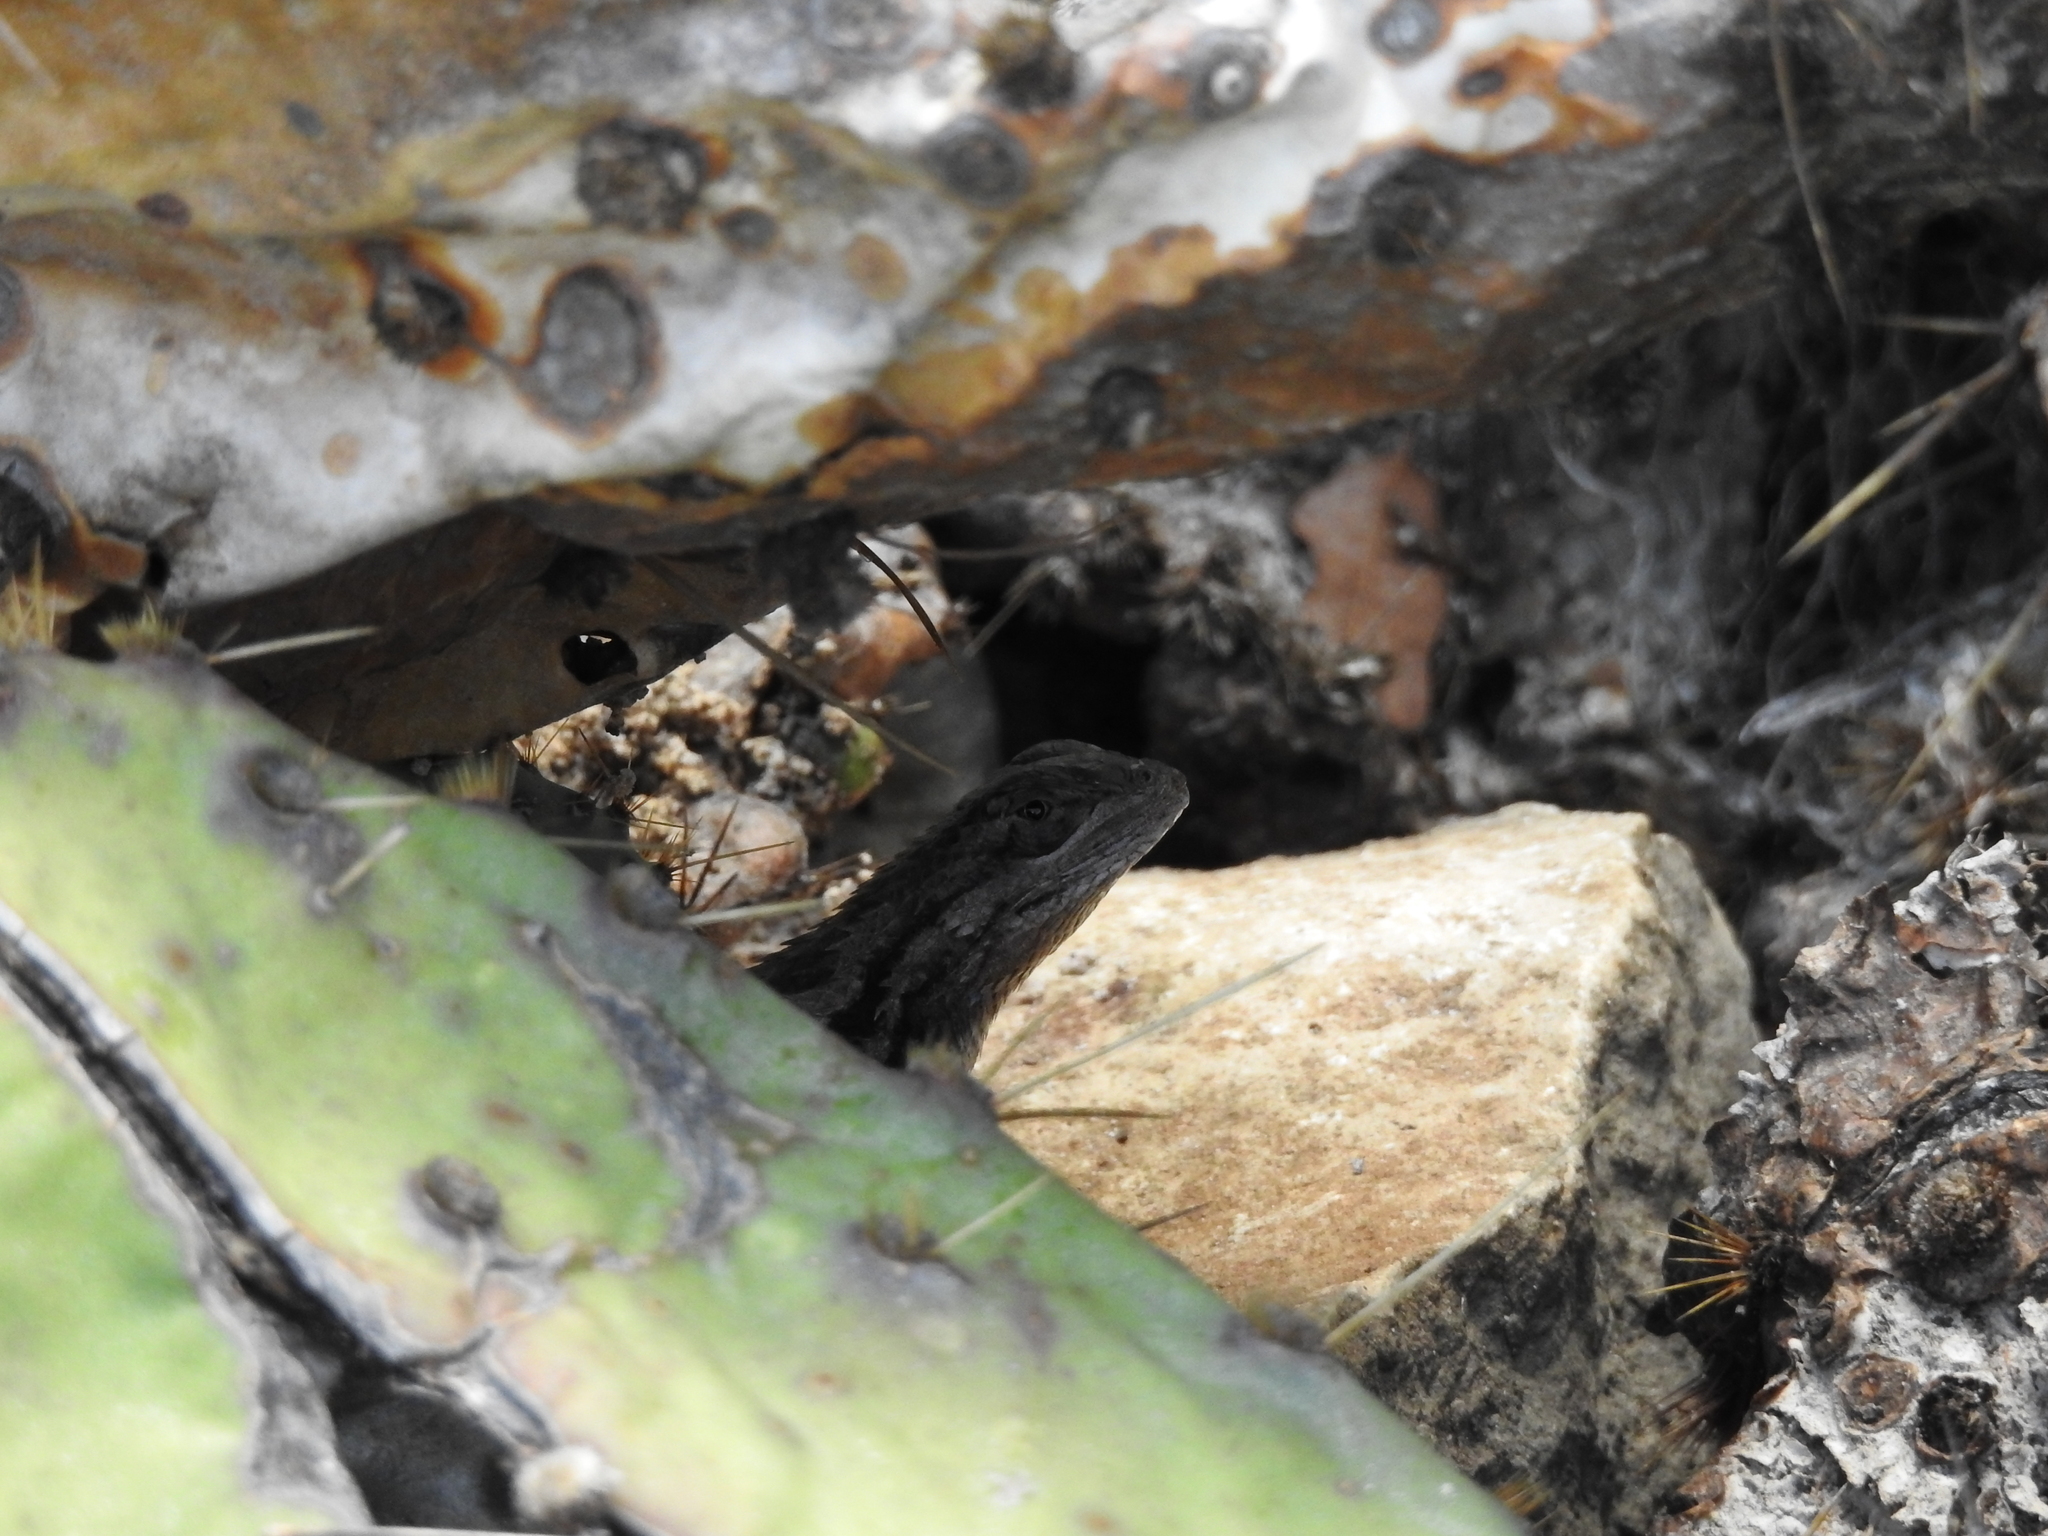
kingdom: Animalia
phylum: Chordata
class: Squamata
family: Phrynosomatidae
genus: Sceloporus
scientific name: Sceloporus olivaceus
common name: Texas spiny lizard
